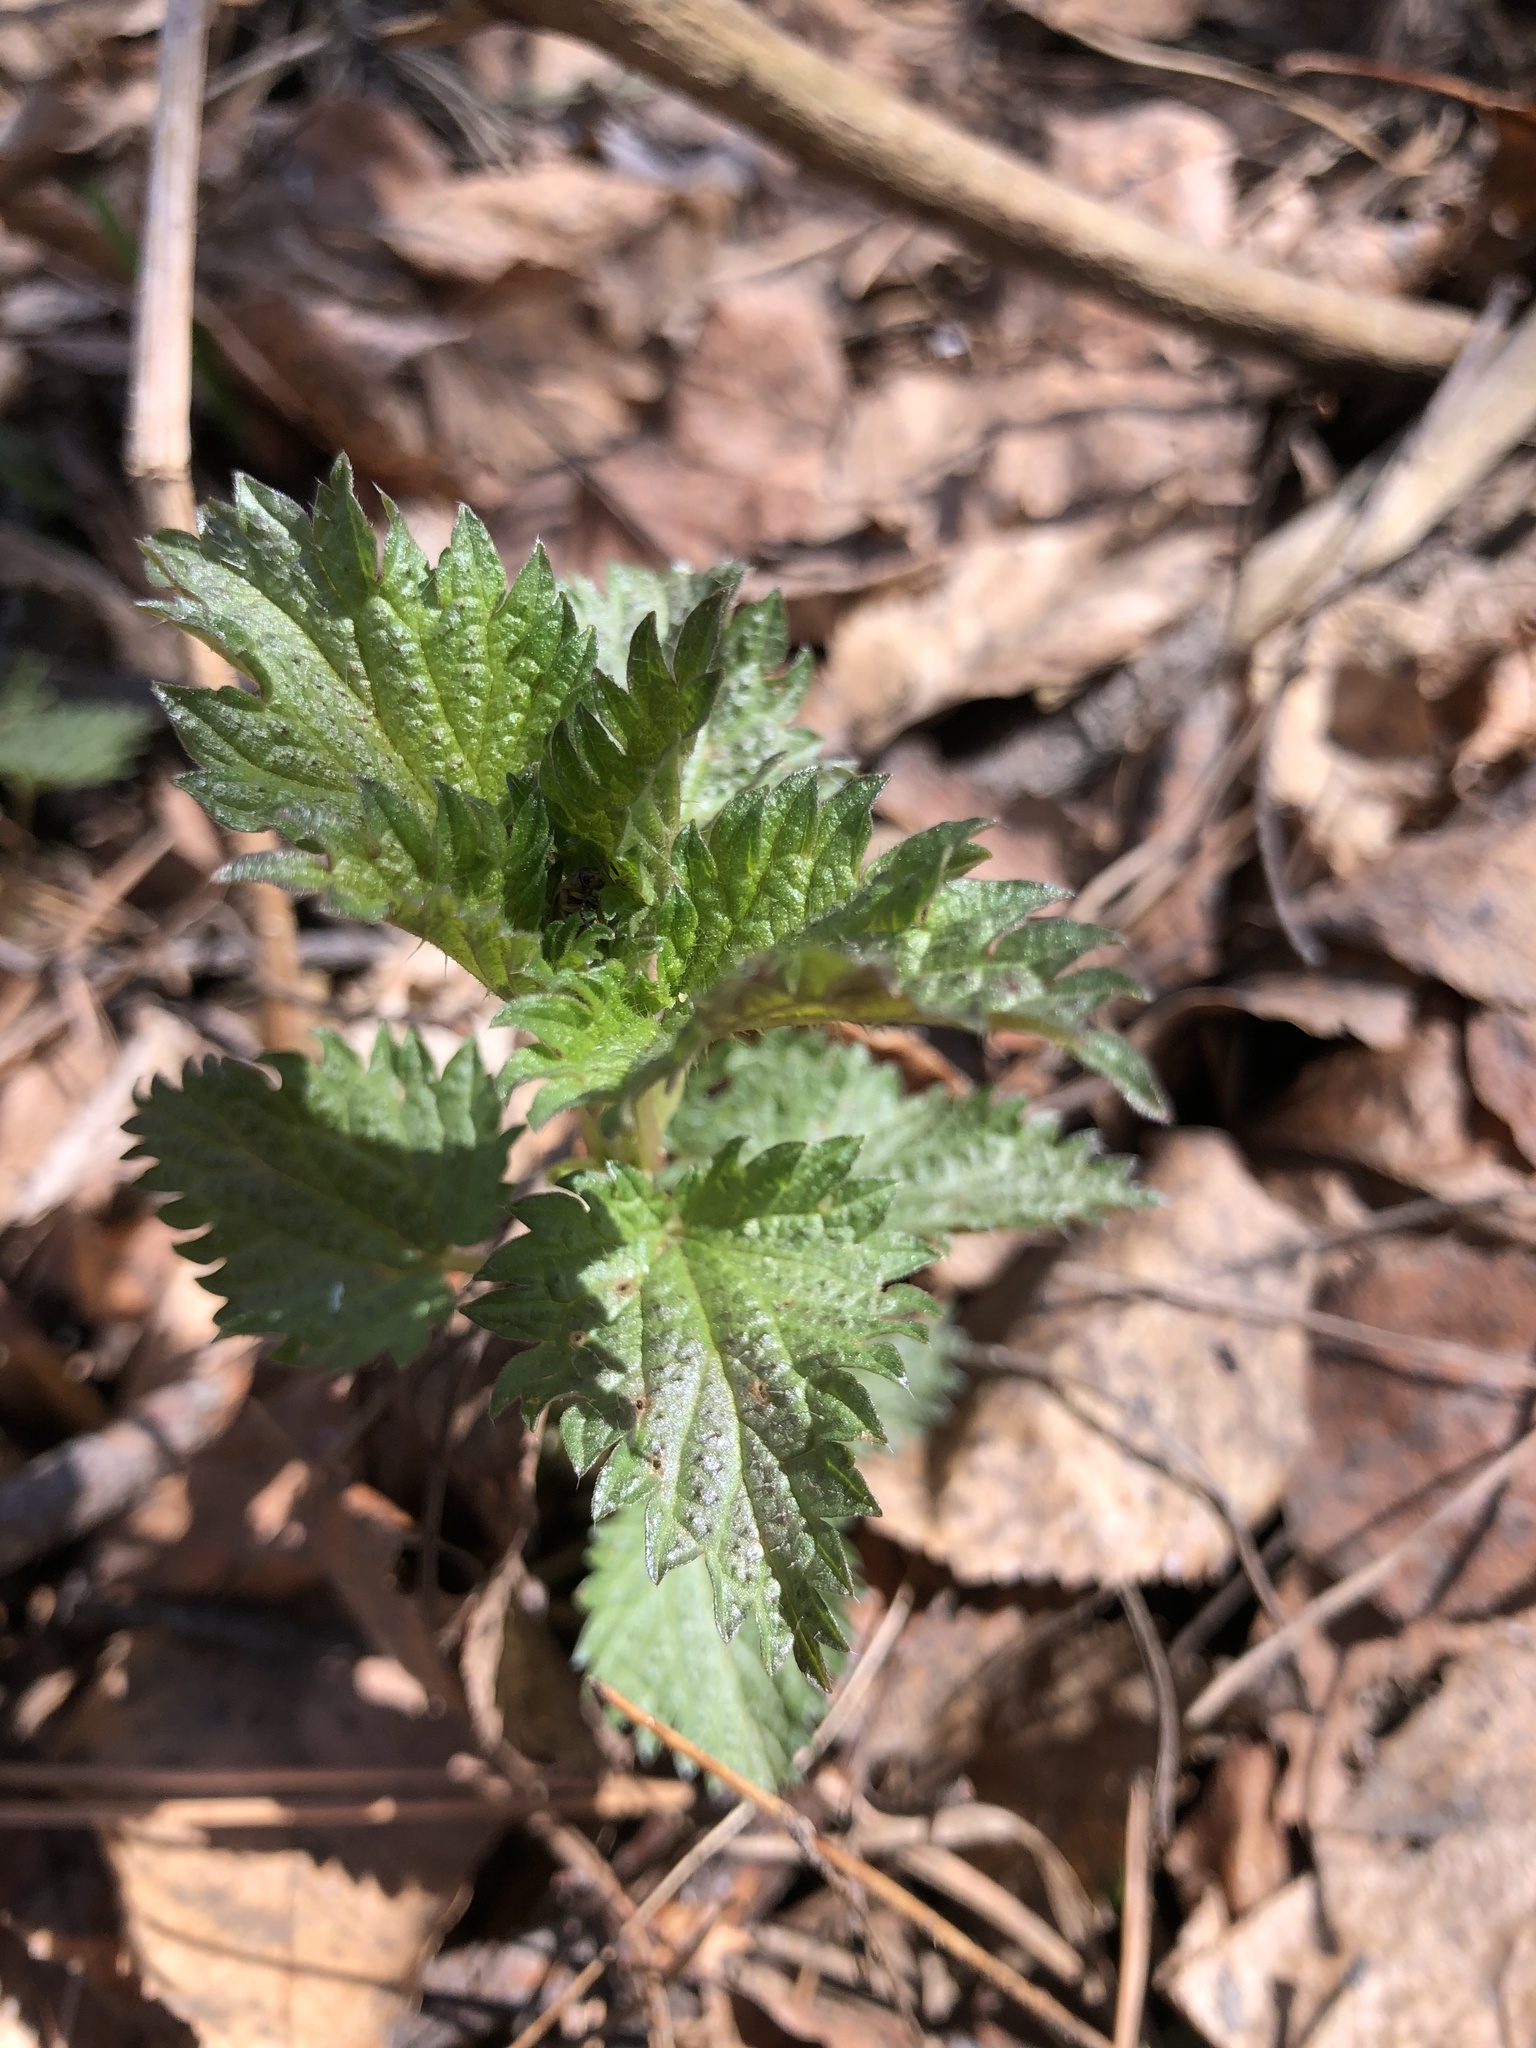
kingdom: Plantae
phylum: Tracheophyta
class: Magnoliopsida
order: Rosales
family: Urticaceae
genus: Urtica
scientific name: Urtica dioica
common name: Common nettle
